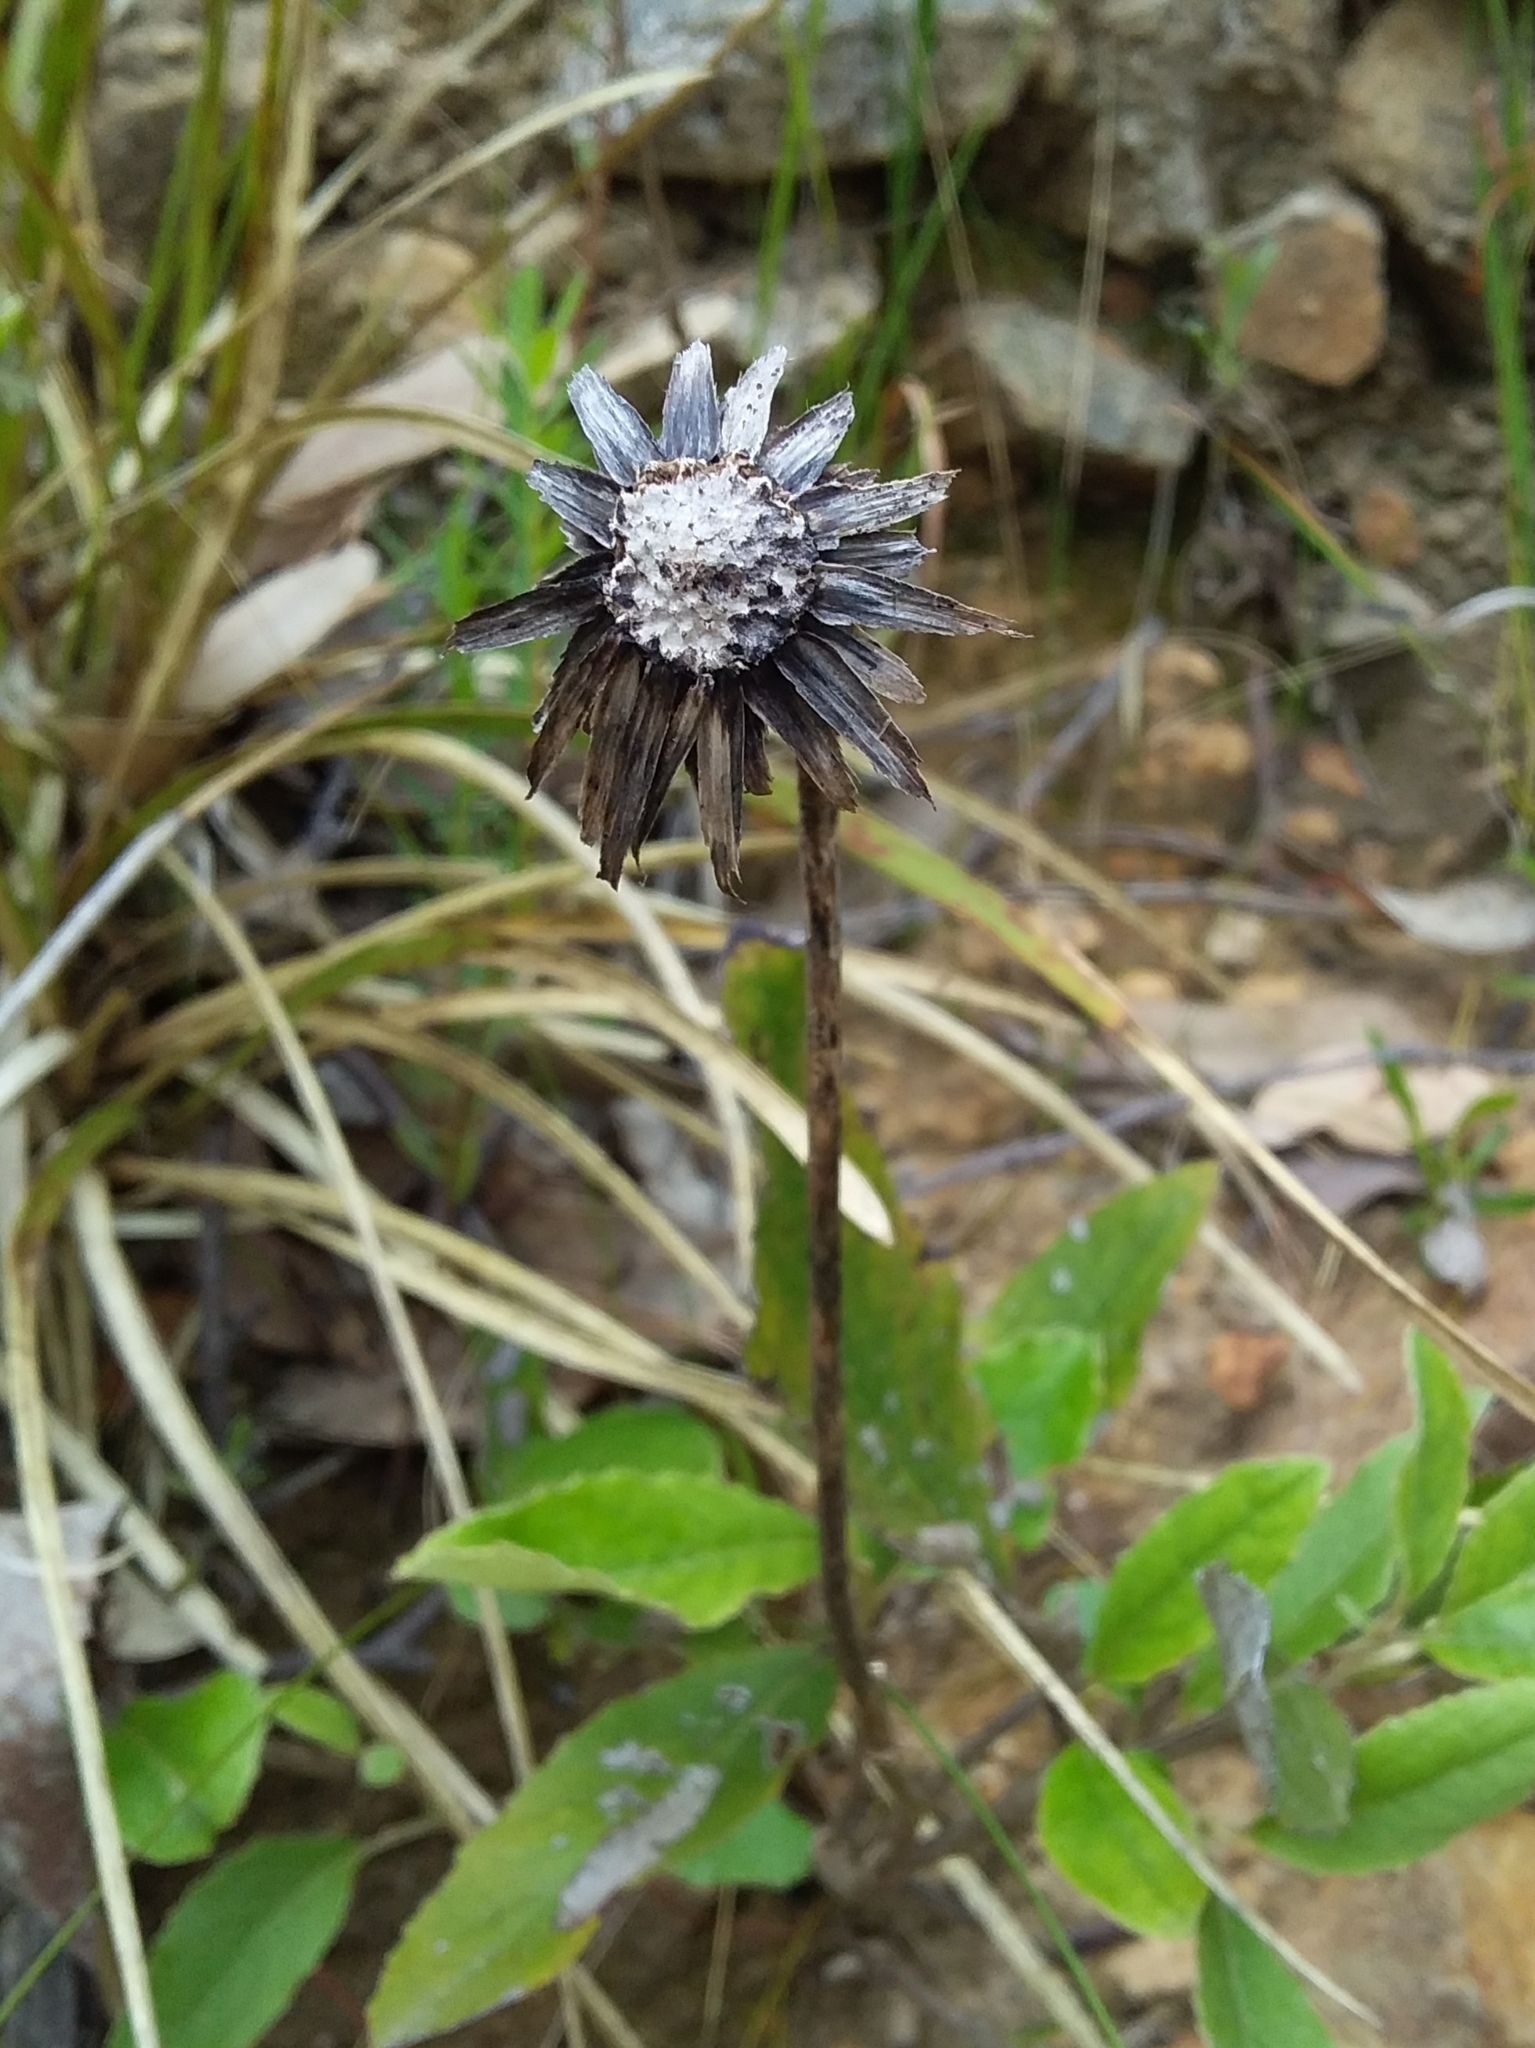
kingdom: Plantae
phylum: Tracheophyta
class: Magnoliopsida
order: Asterales
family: Asteraceae
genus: Olearia
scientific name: Olearia grandiflora
